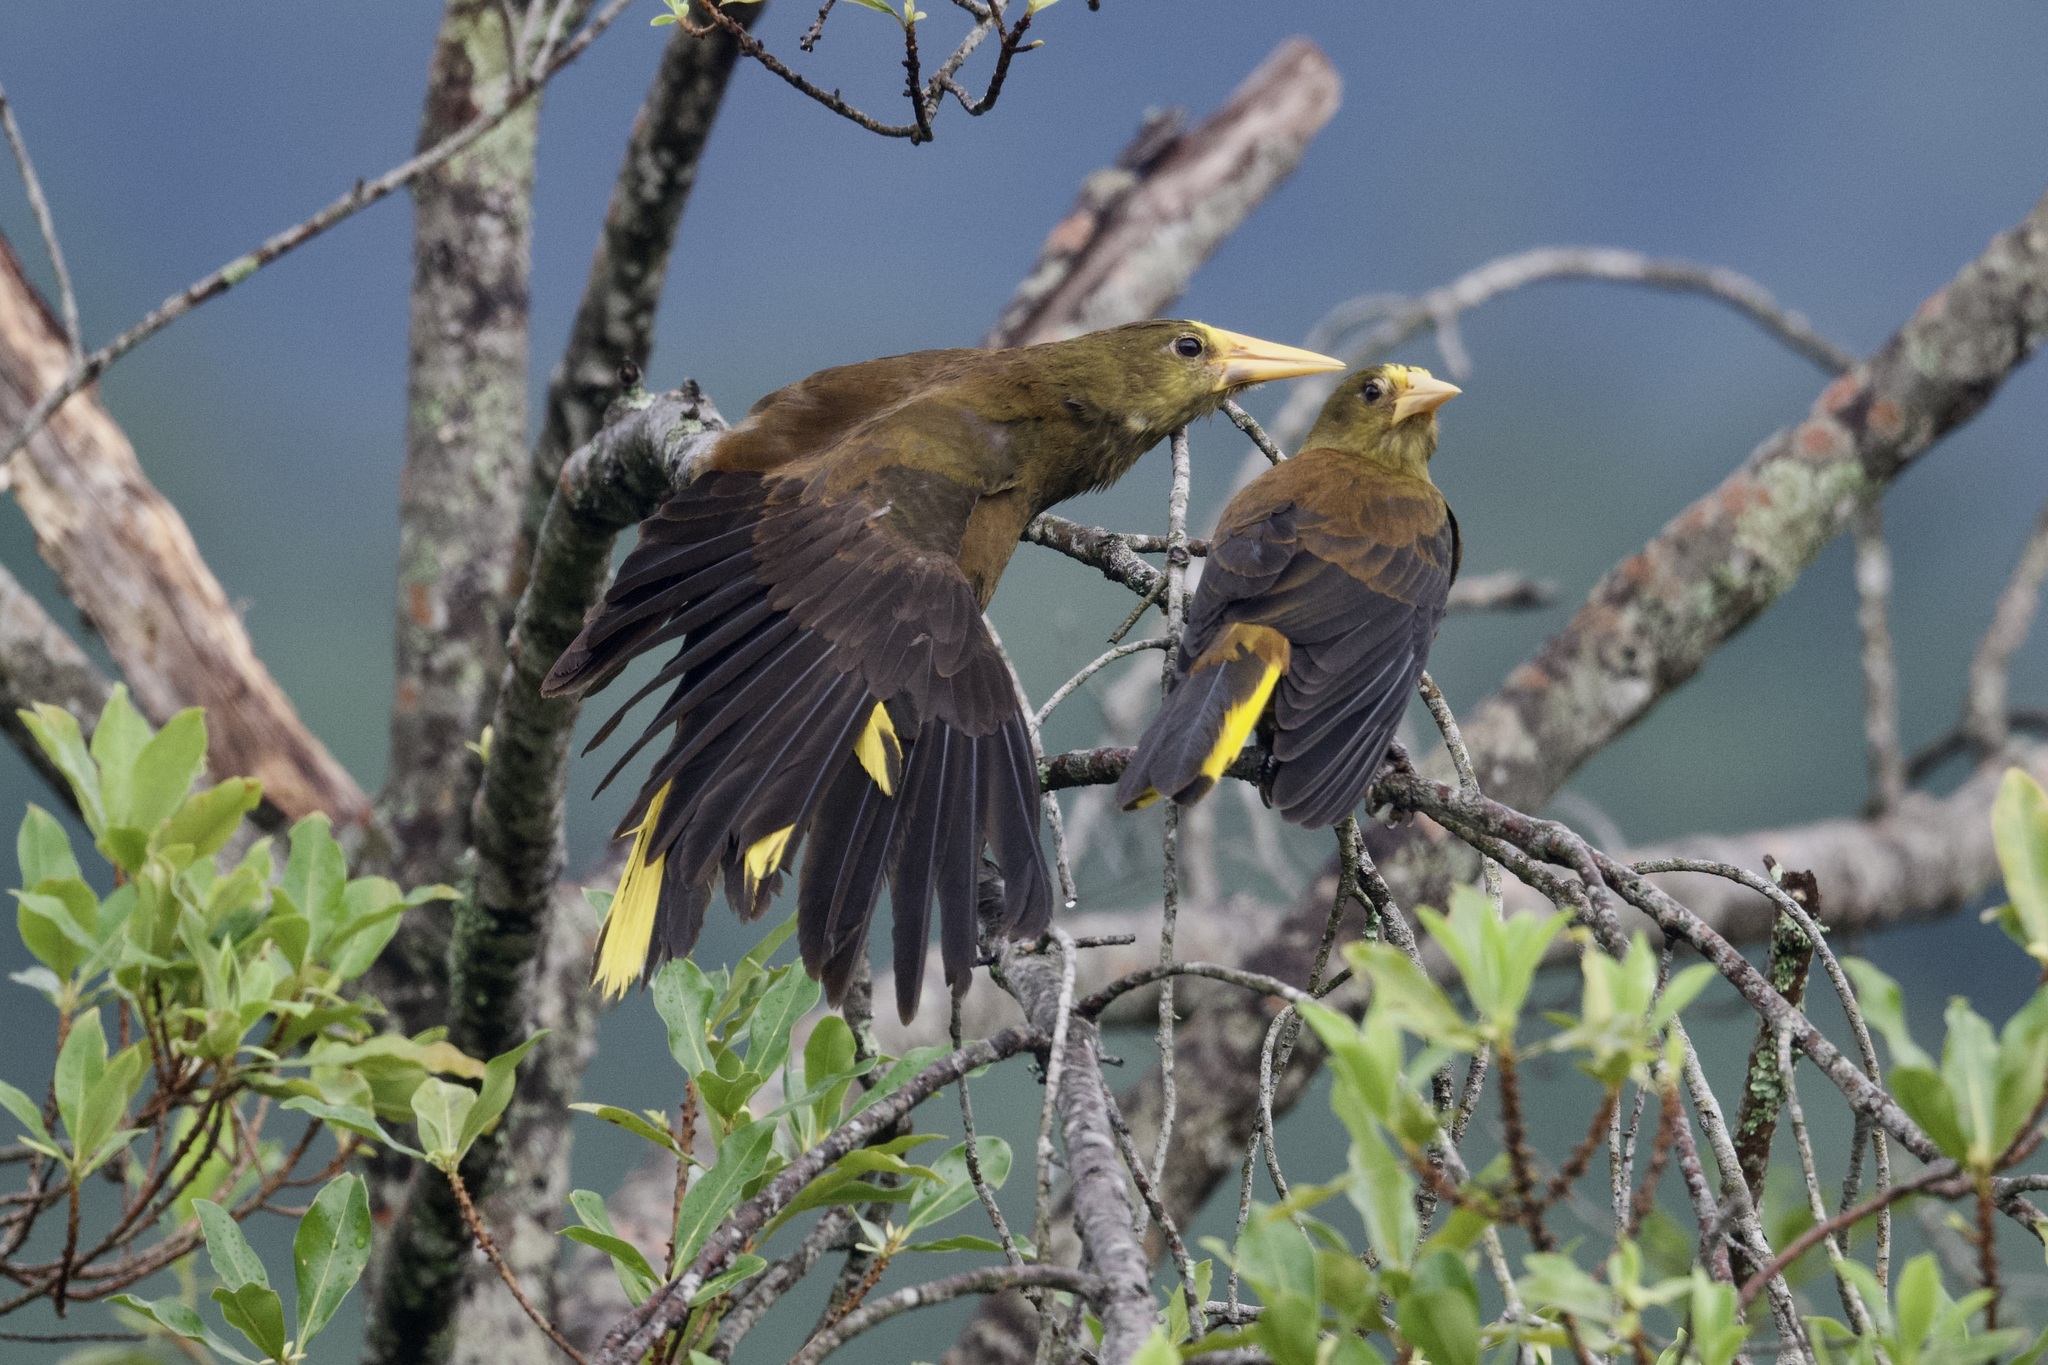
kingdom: Animalia
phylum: Chordata
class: Aves
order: Passeriformes
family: Icteridae
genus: Psarocolius
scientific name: Psarocolius angustifrons
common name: Russet-backed oropendola
